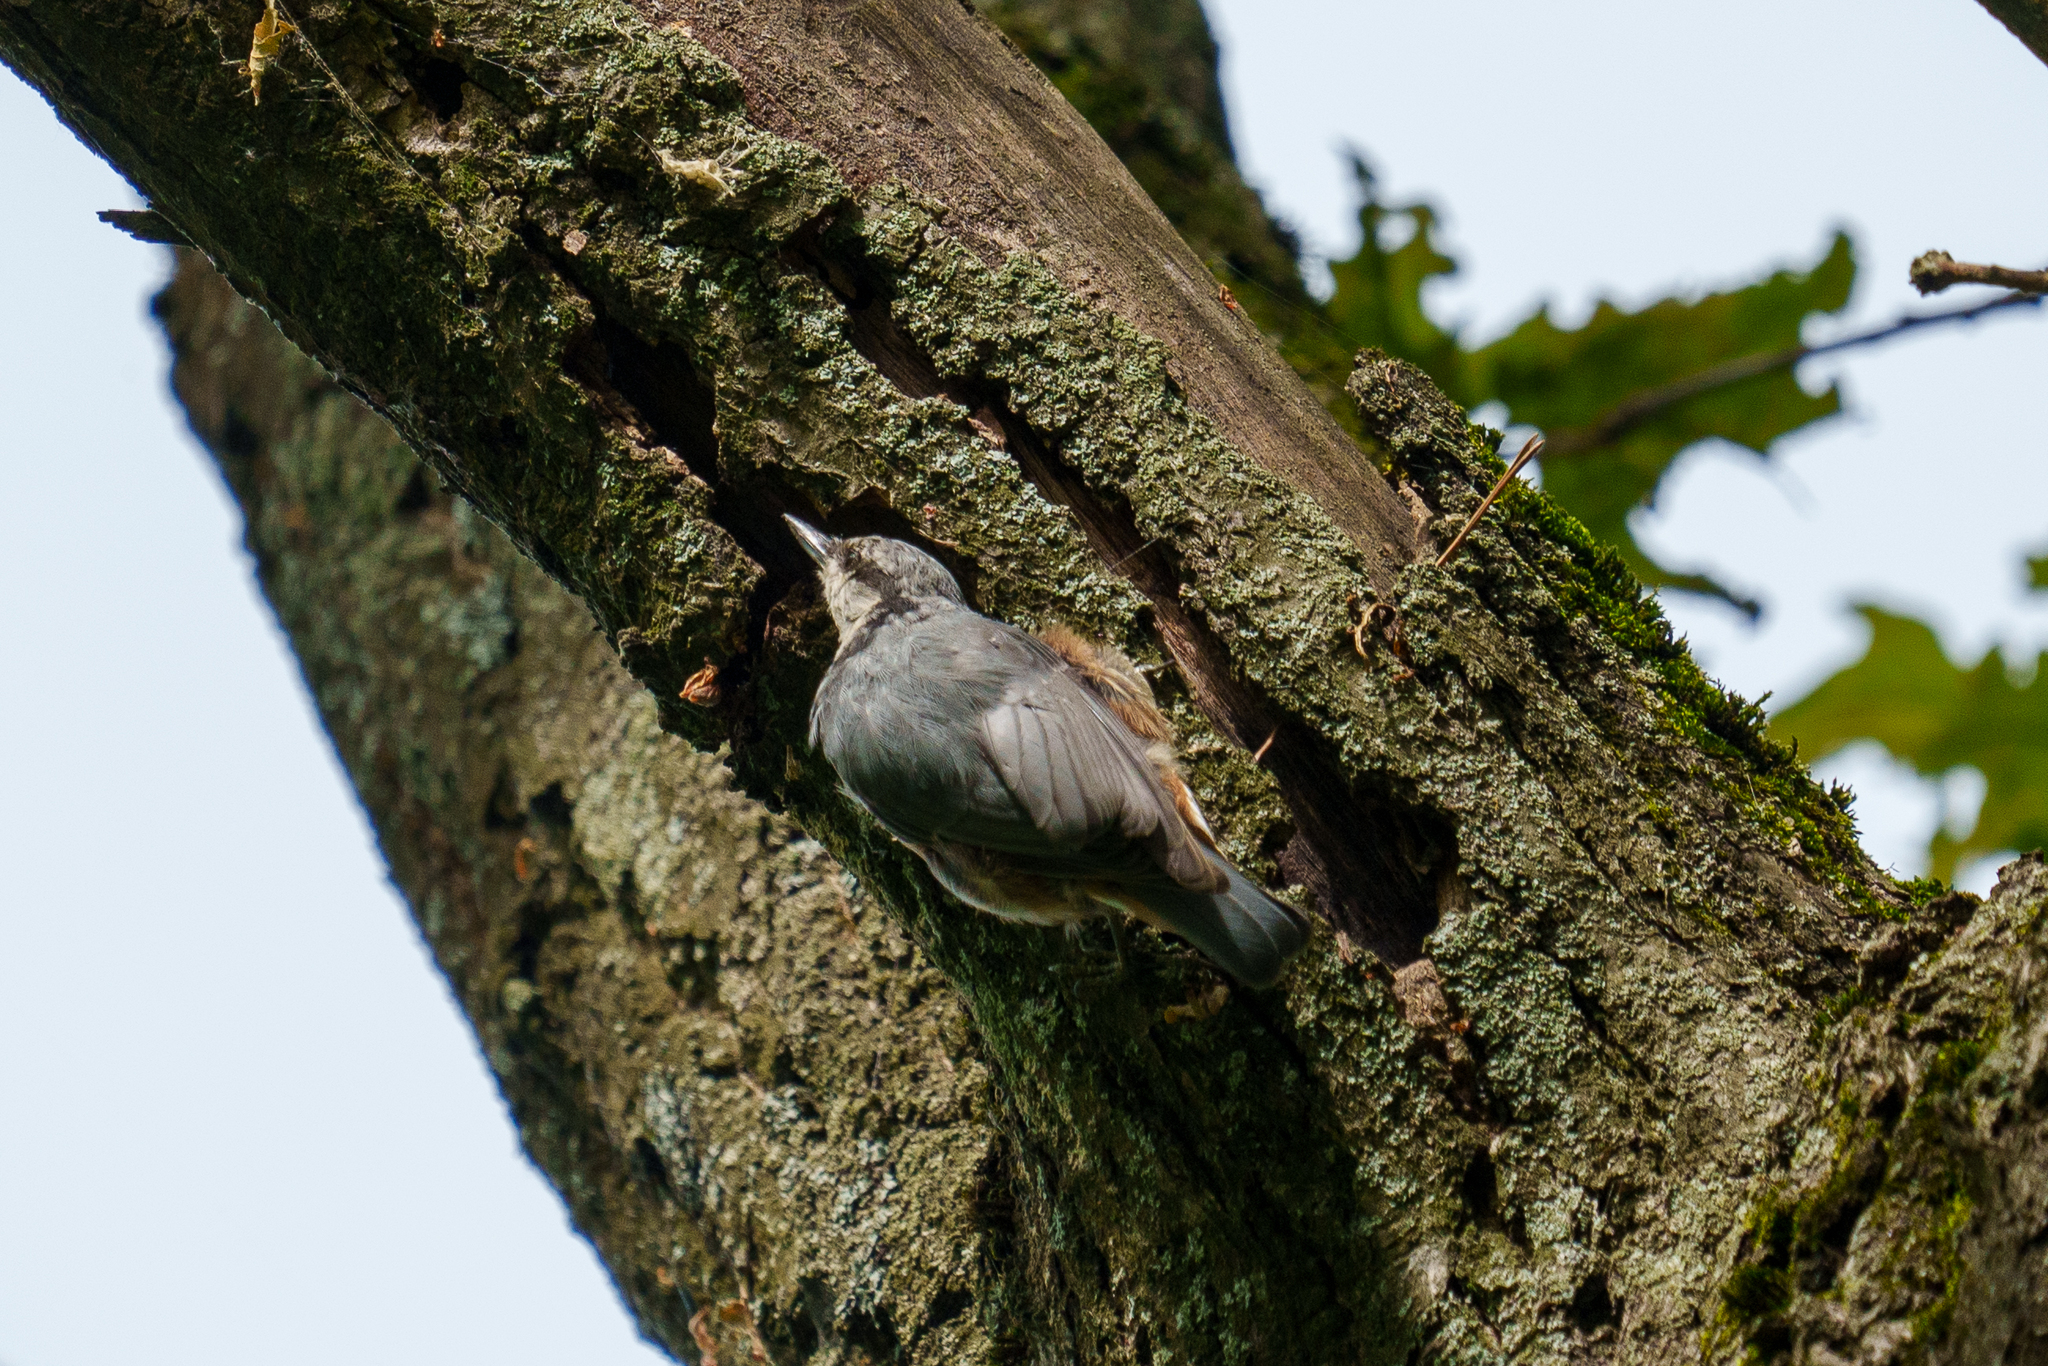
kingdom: Animalia
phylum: Chordata
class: Aves
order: Passeriformes
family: Sittidae
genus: Sitta
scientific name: Sitta europaea
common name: Eurasian nuthatch
